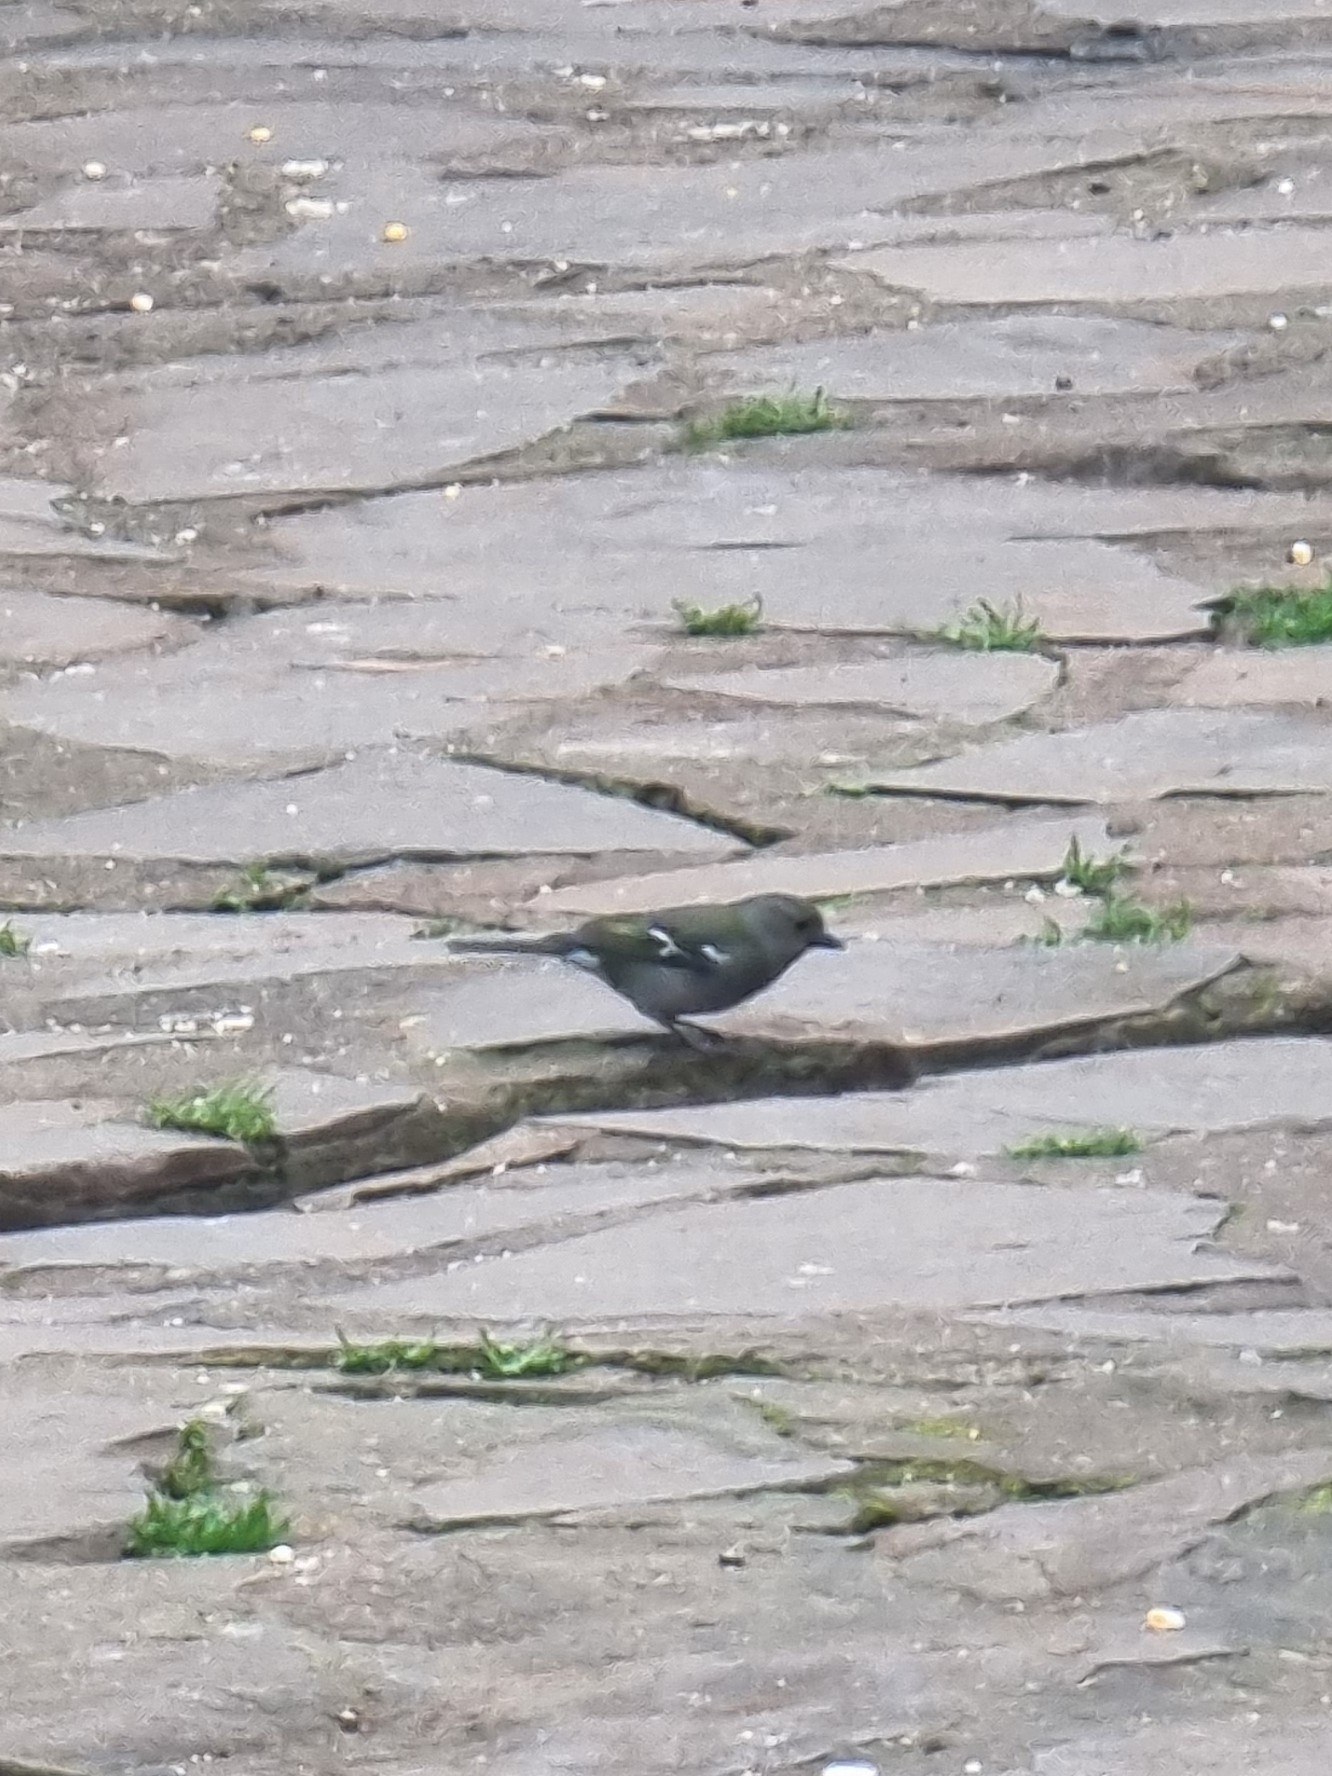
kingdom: Animalia
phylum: Chordata
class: Aves
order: Passeriformes
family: Fringillidae
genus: Fringilla
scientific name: Fringilla maderensis
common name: Madeira chaffinch
